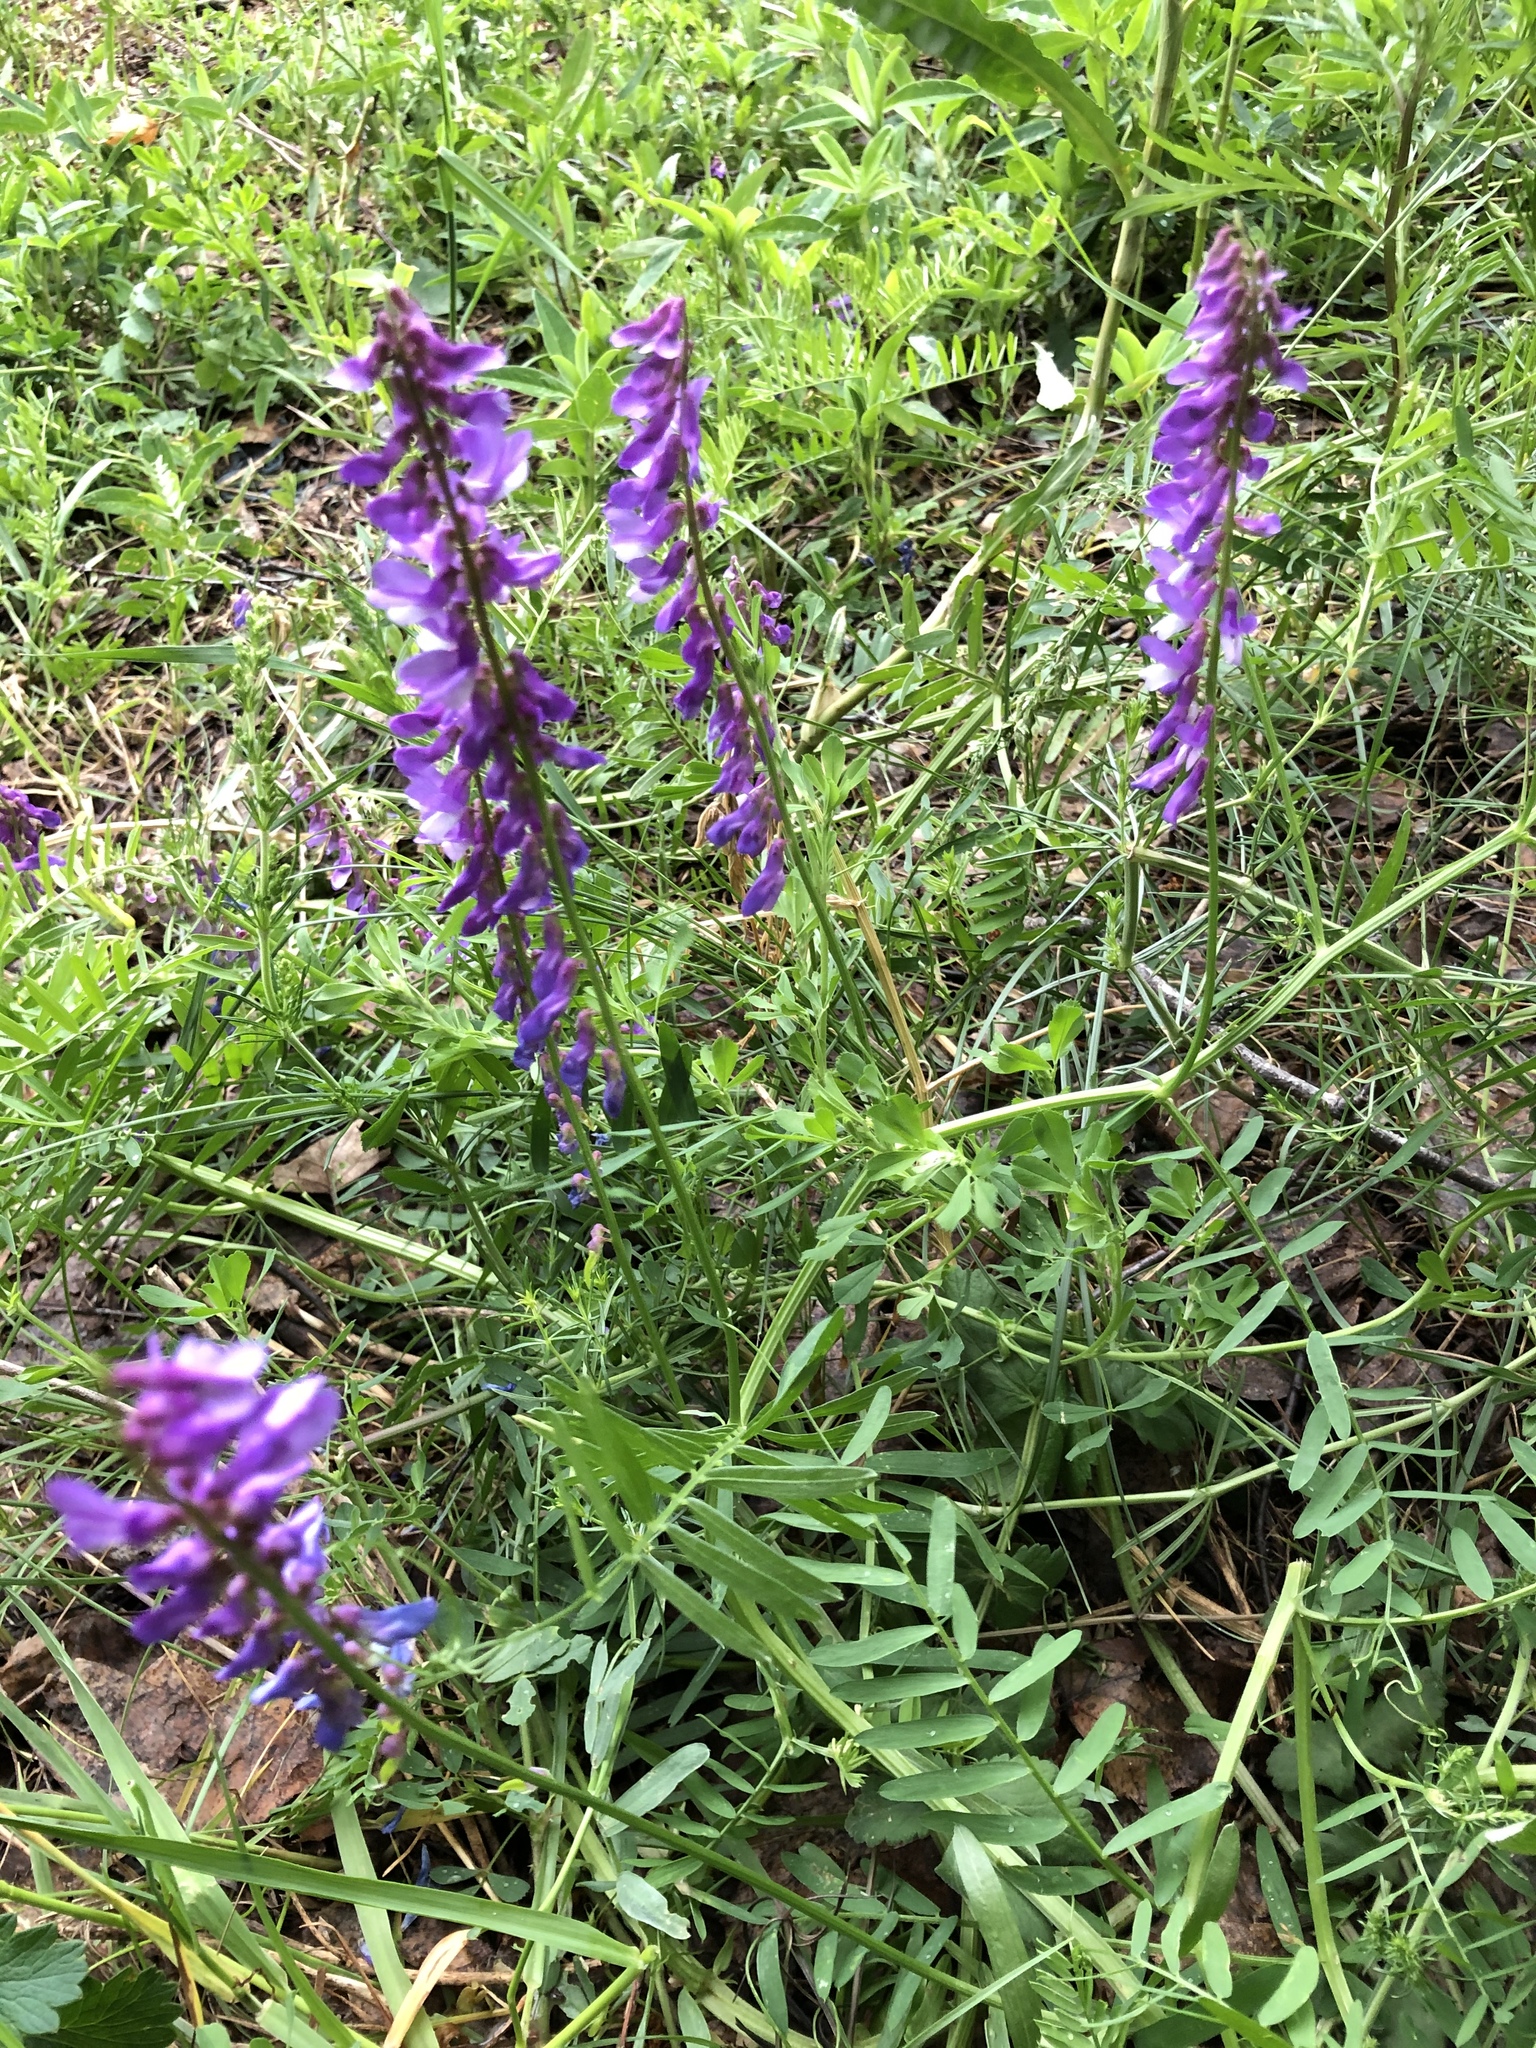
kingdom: Plantae
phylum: Tracheophyta
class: Magnoliopsida
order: Fabales
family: Fabaceae
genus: Vicia
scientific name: Vicia tenuifolia
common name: Fine-leaved vetch
